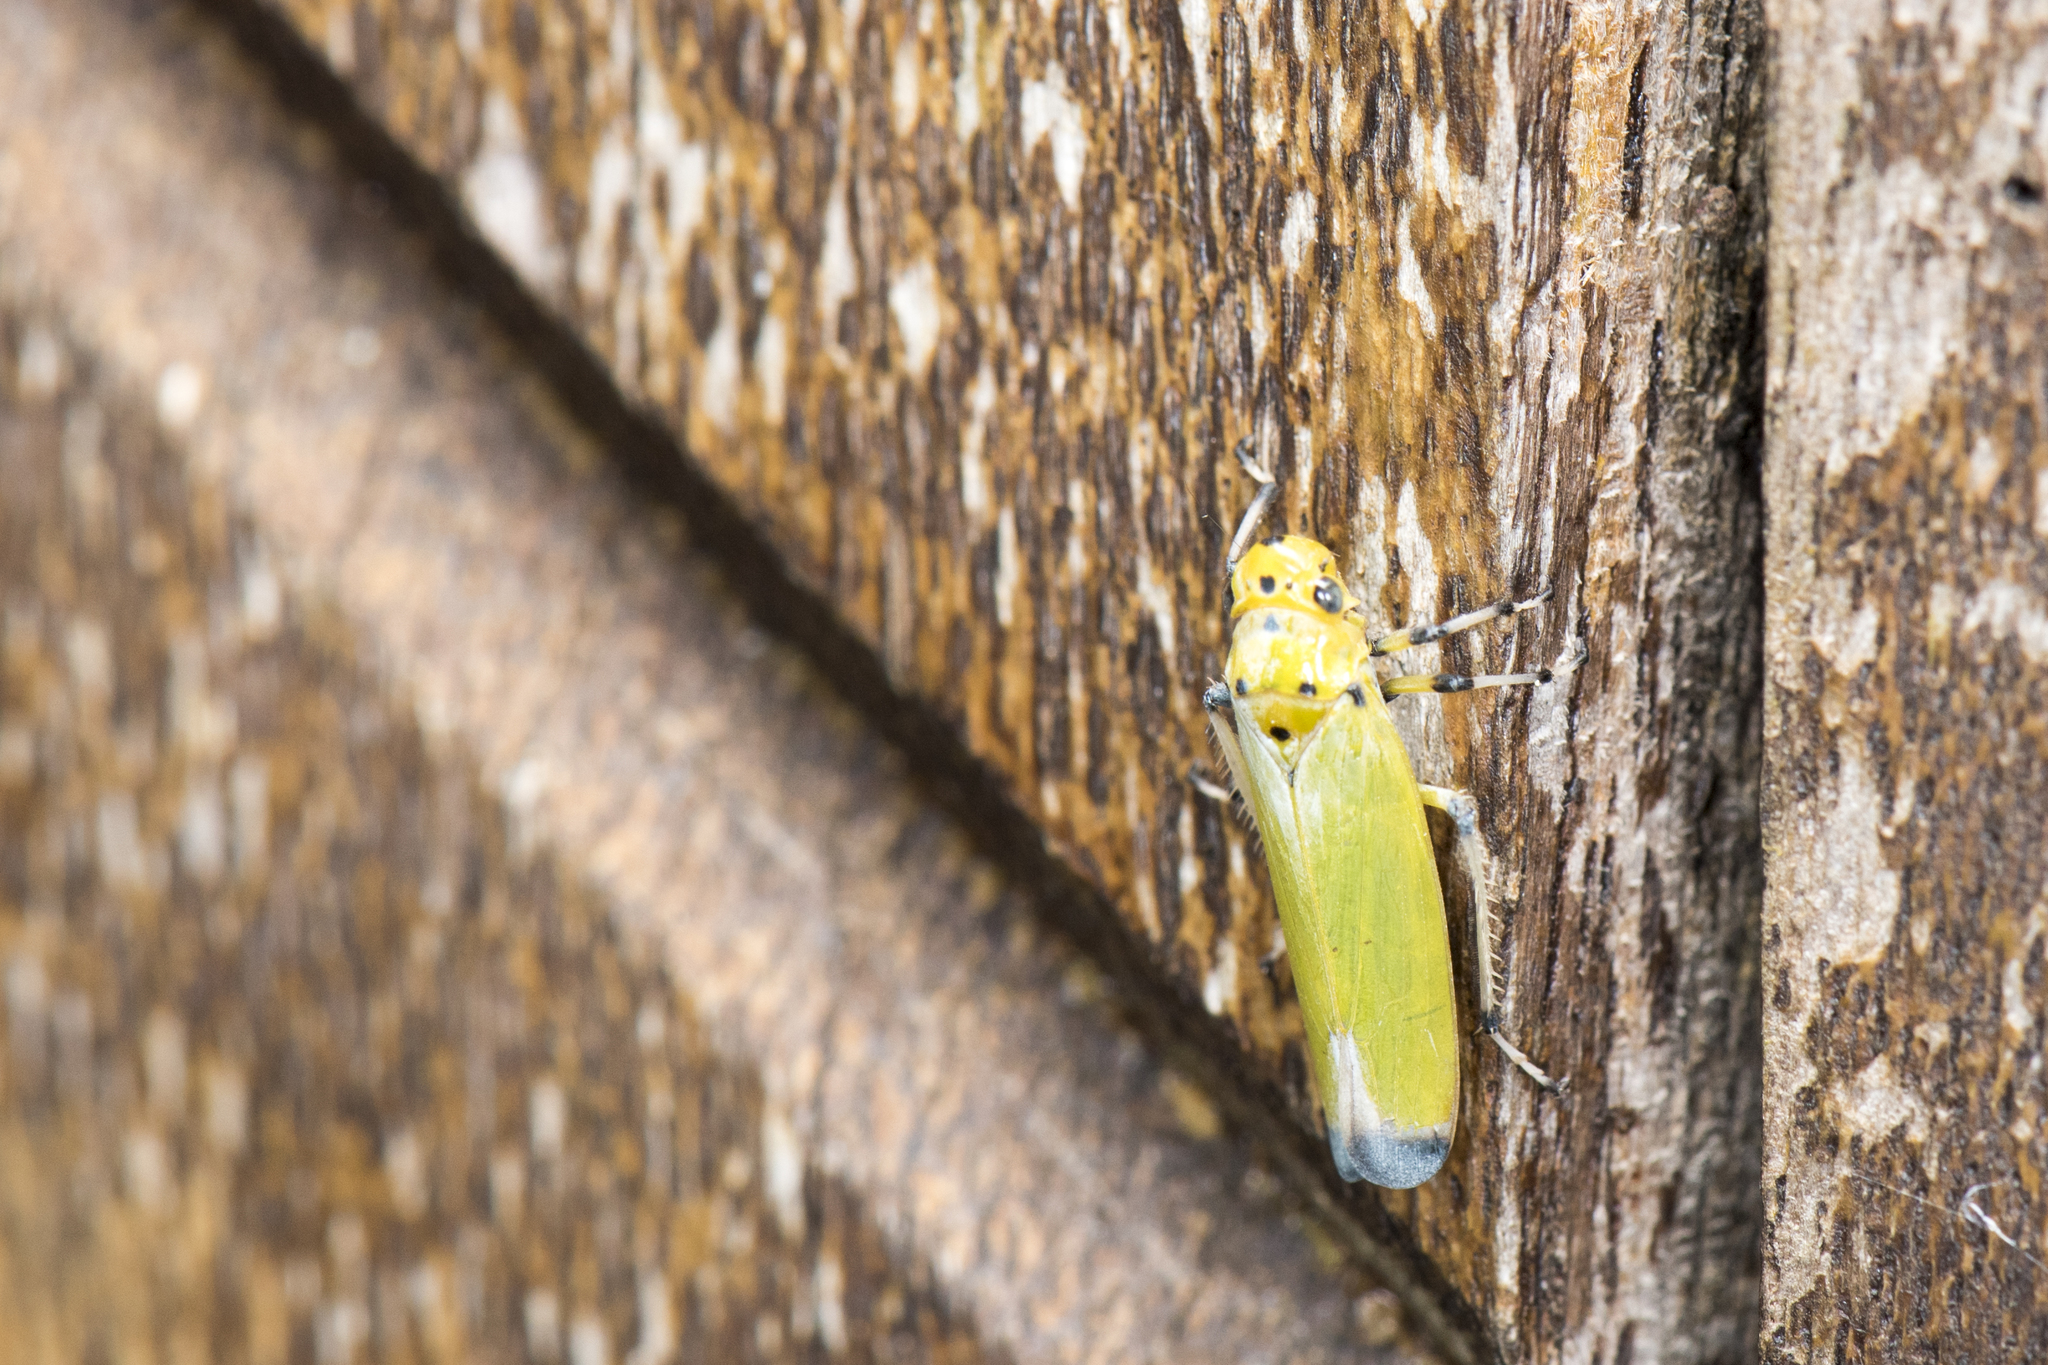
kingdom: Animalia
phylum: Arthropoda
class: Insecta
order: Hemiptera
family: Cicadellidae
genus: Bothrogonia
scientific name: Bothrogonia ferruginea
